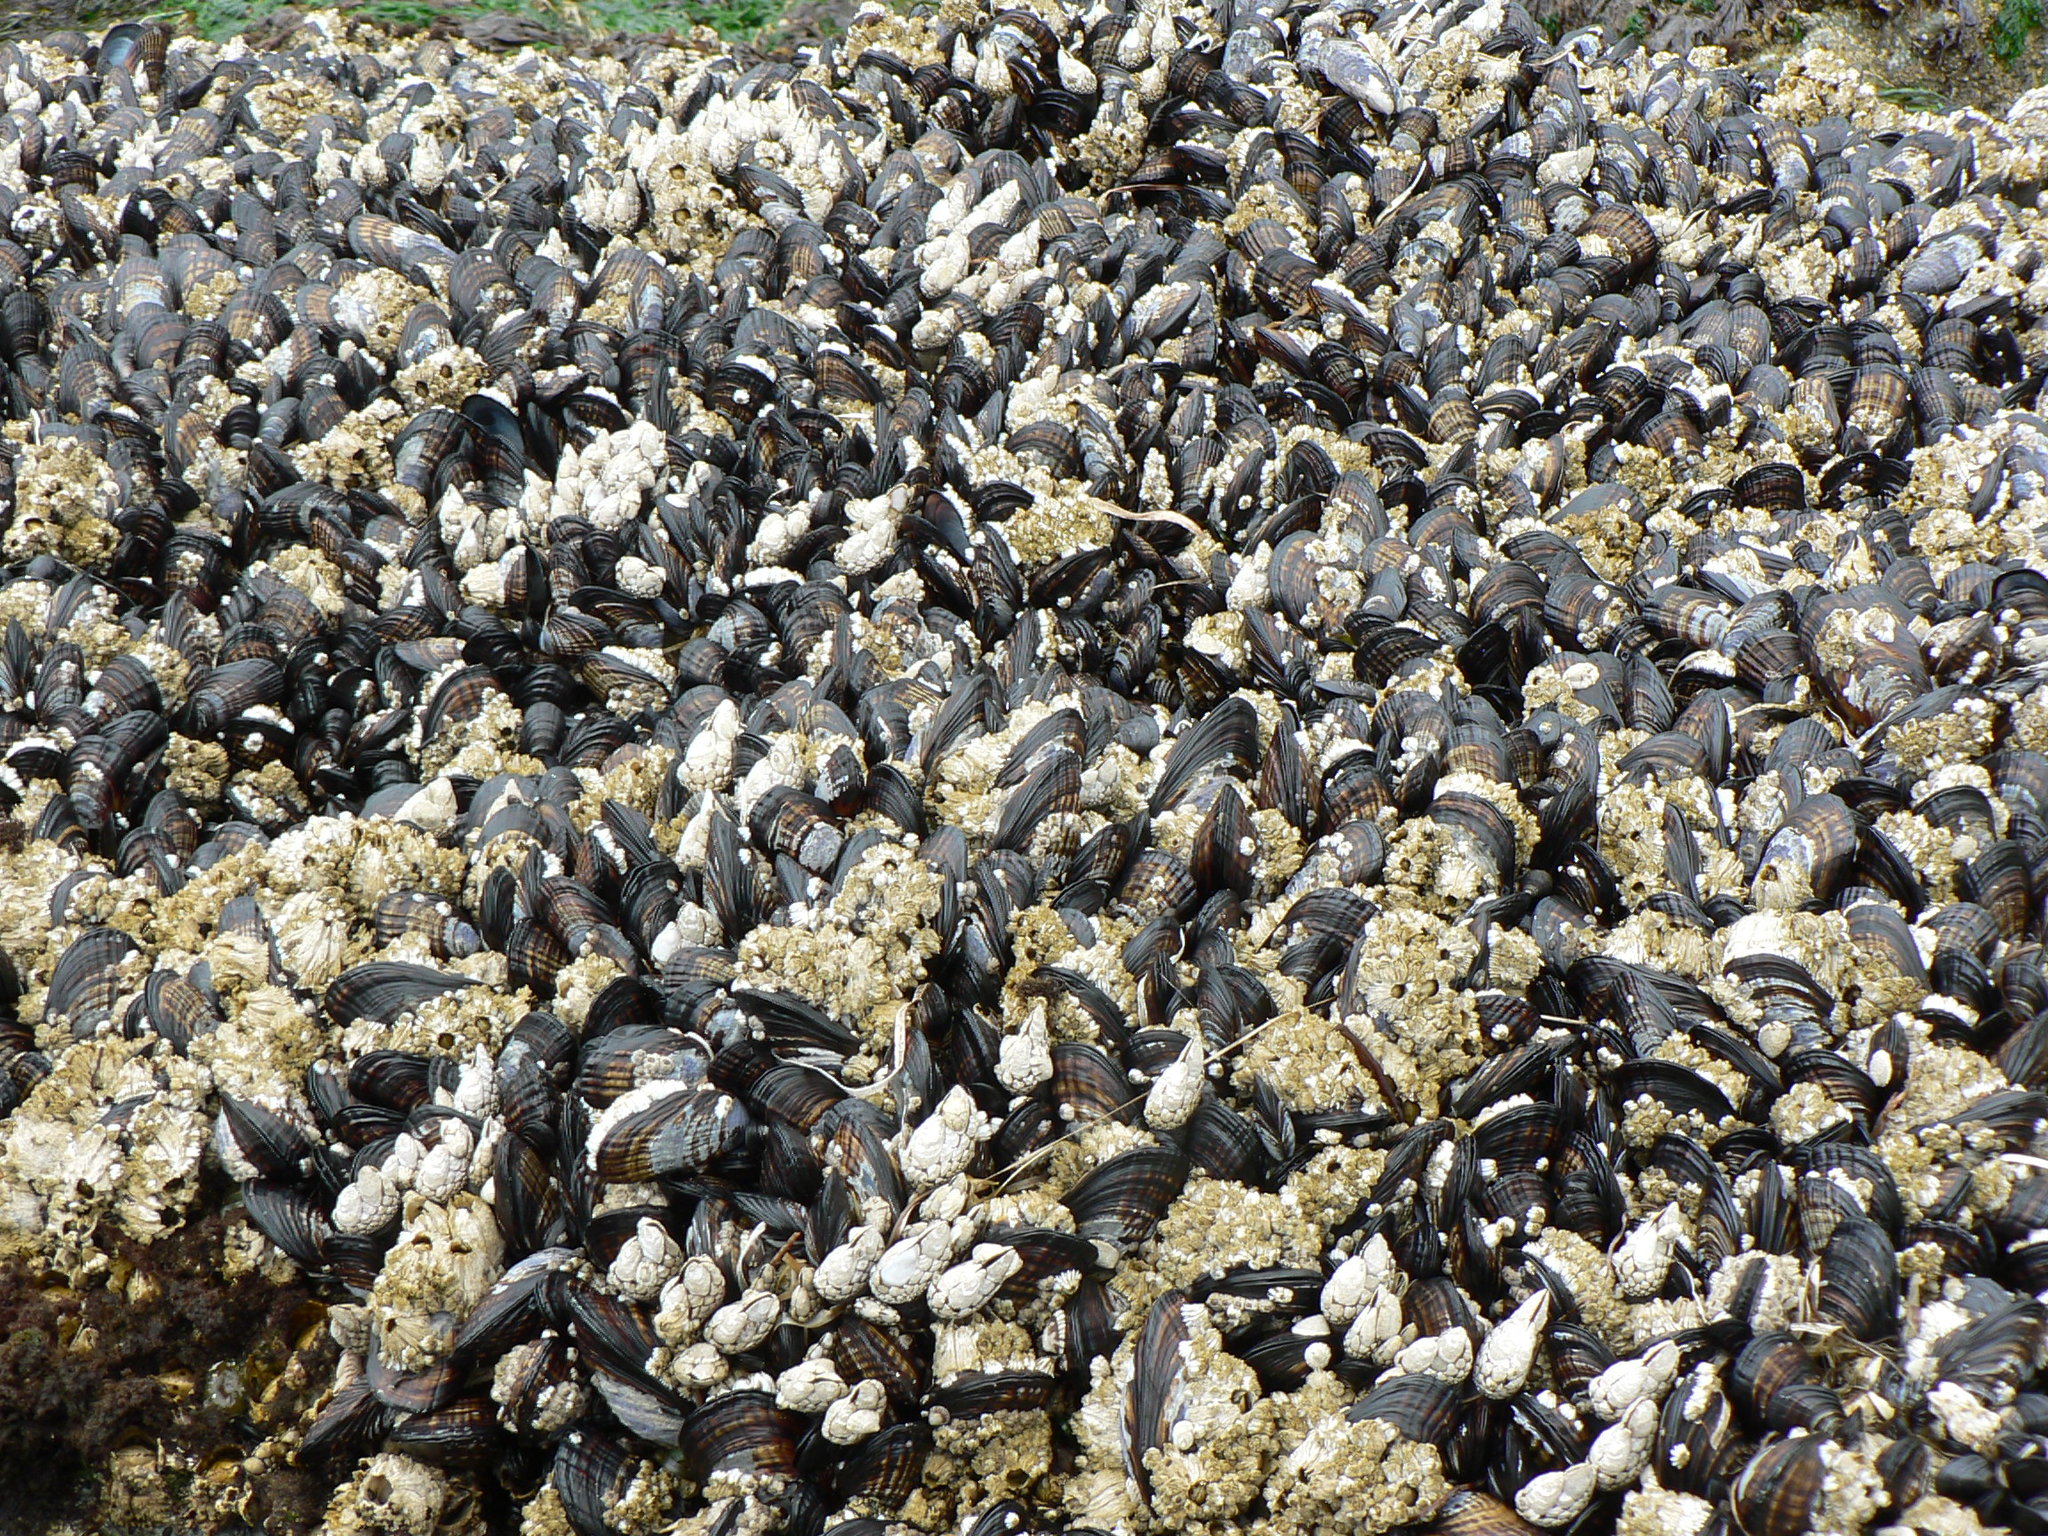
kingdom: Animalia
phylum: Mollusca
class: Bivalvia
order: Mytilida
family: Mytilidae
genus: Mytilus
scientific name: Mytilus californianus
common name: California mussel
